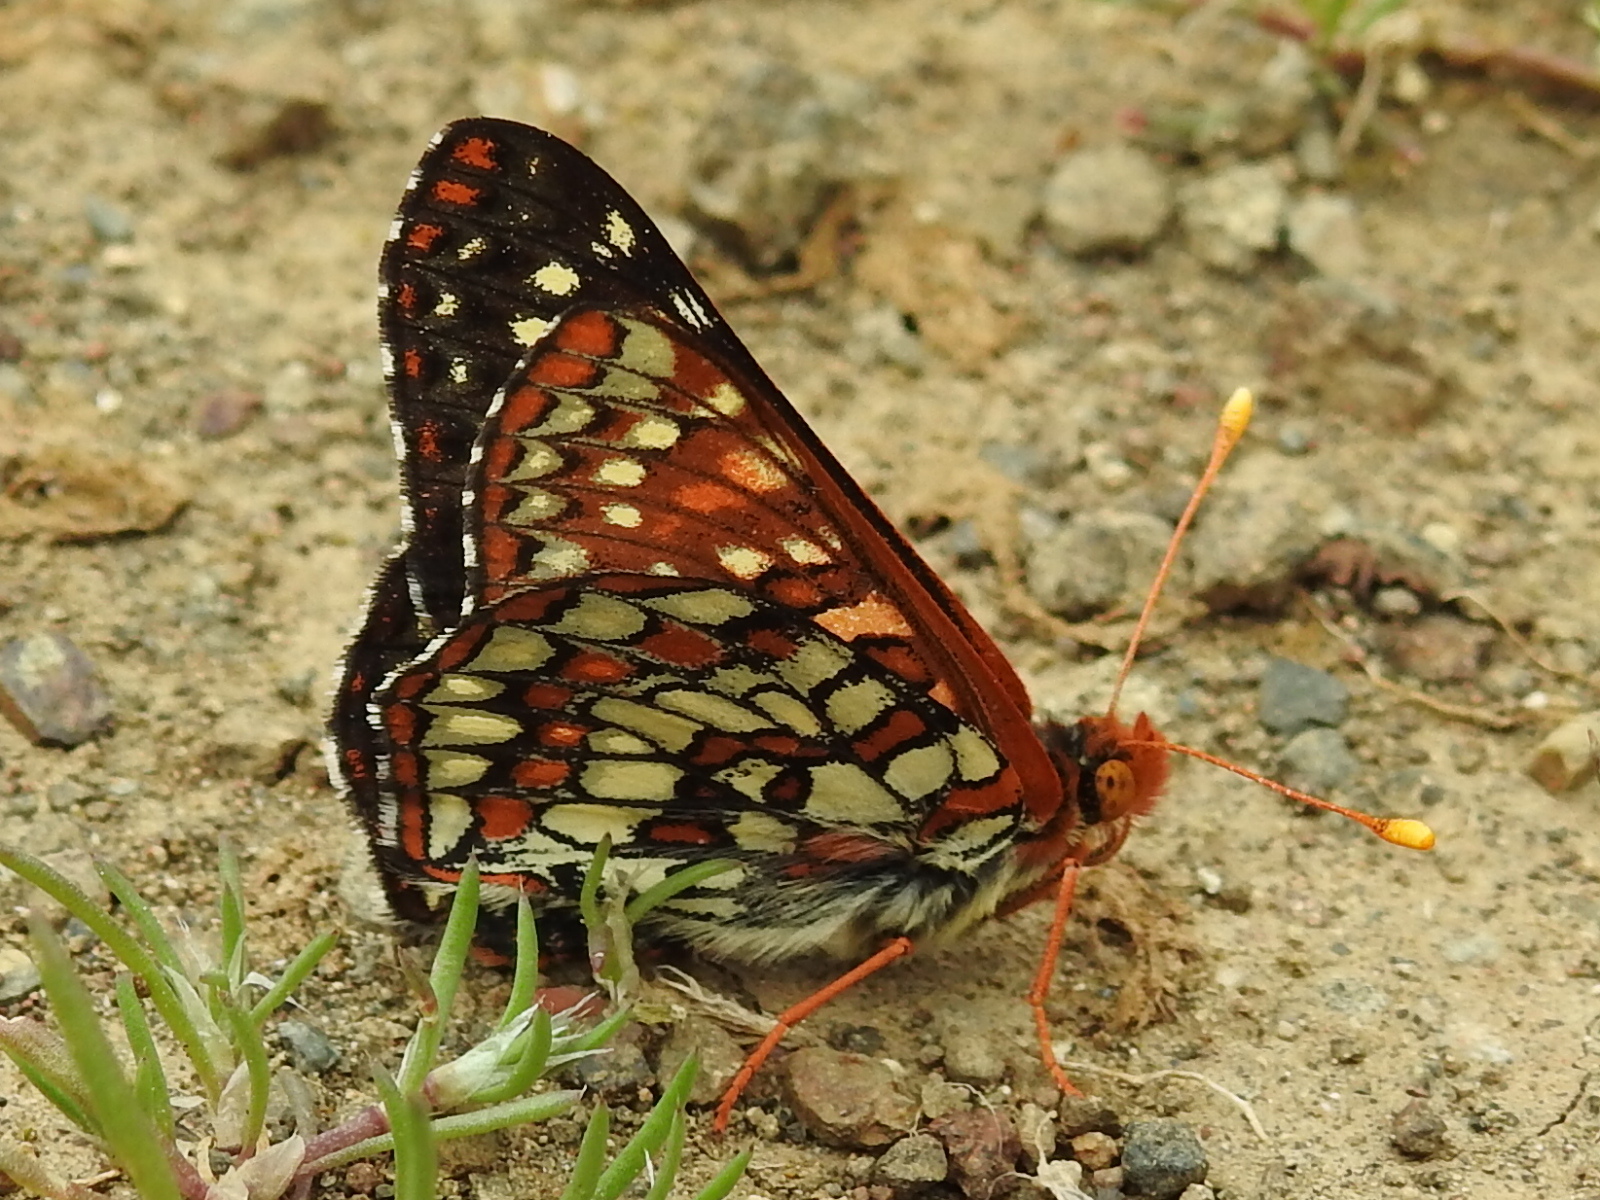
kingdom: Animalia
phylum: Arthropoda
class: Insecta
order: Lepidoptera
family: Nymphalidae
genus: Occidryas
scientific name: Occidryas chalcedona
